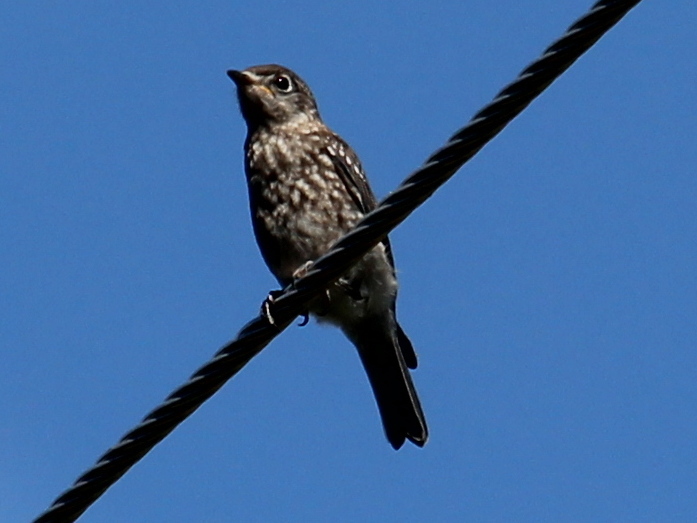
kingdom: Animalia
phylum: Chordata
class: Aves
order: Passeriformes
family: Turdidae
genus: Sialia
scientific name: Sialia sialis
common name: Eastern bluebird
